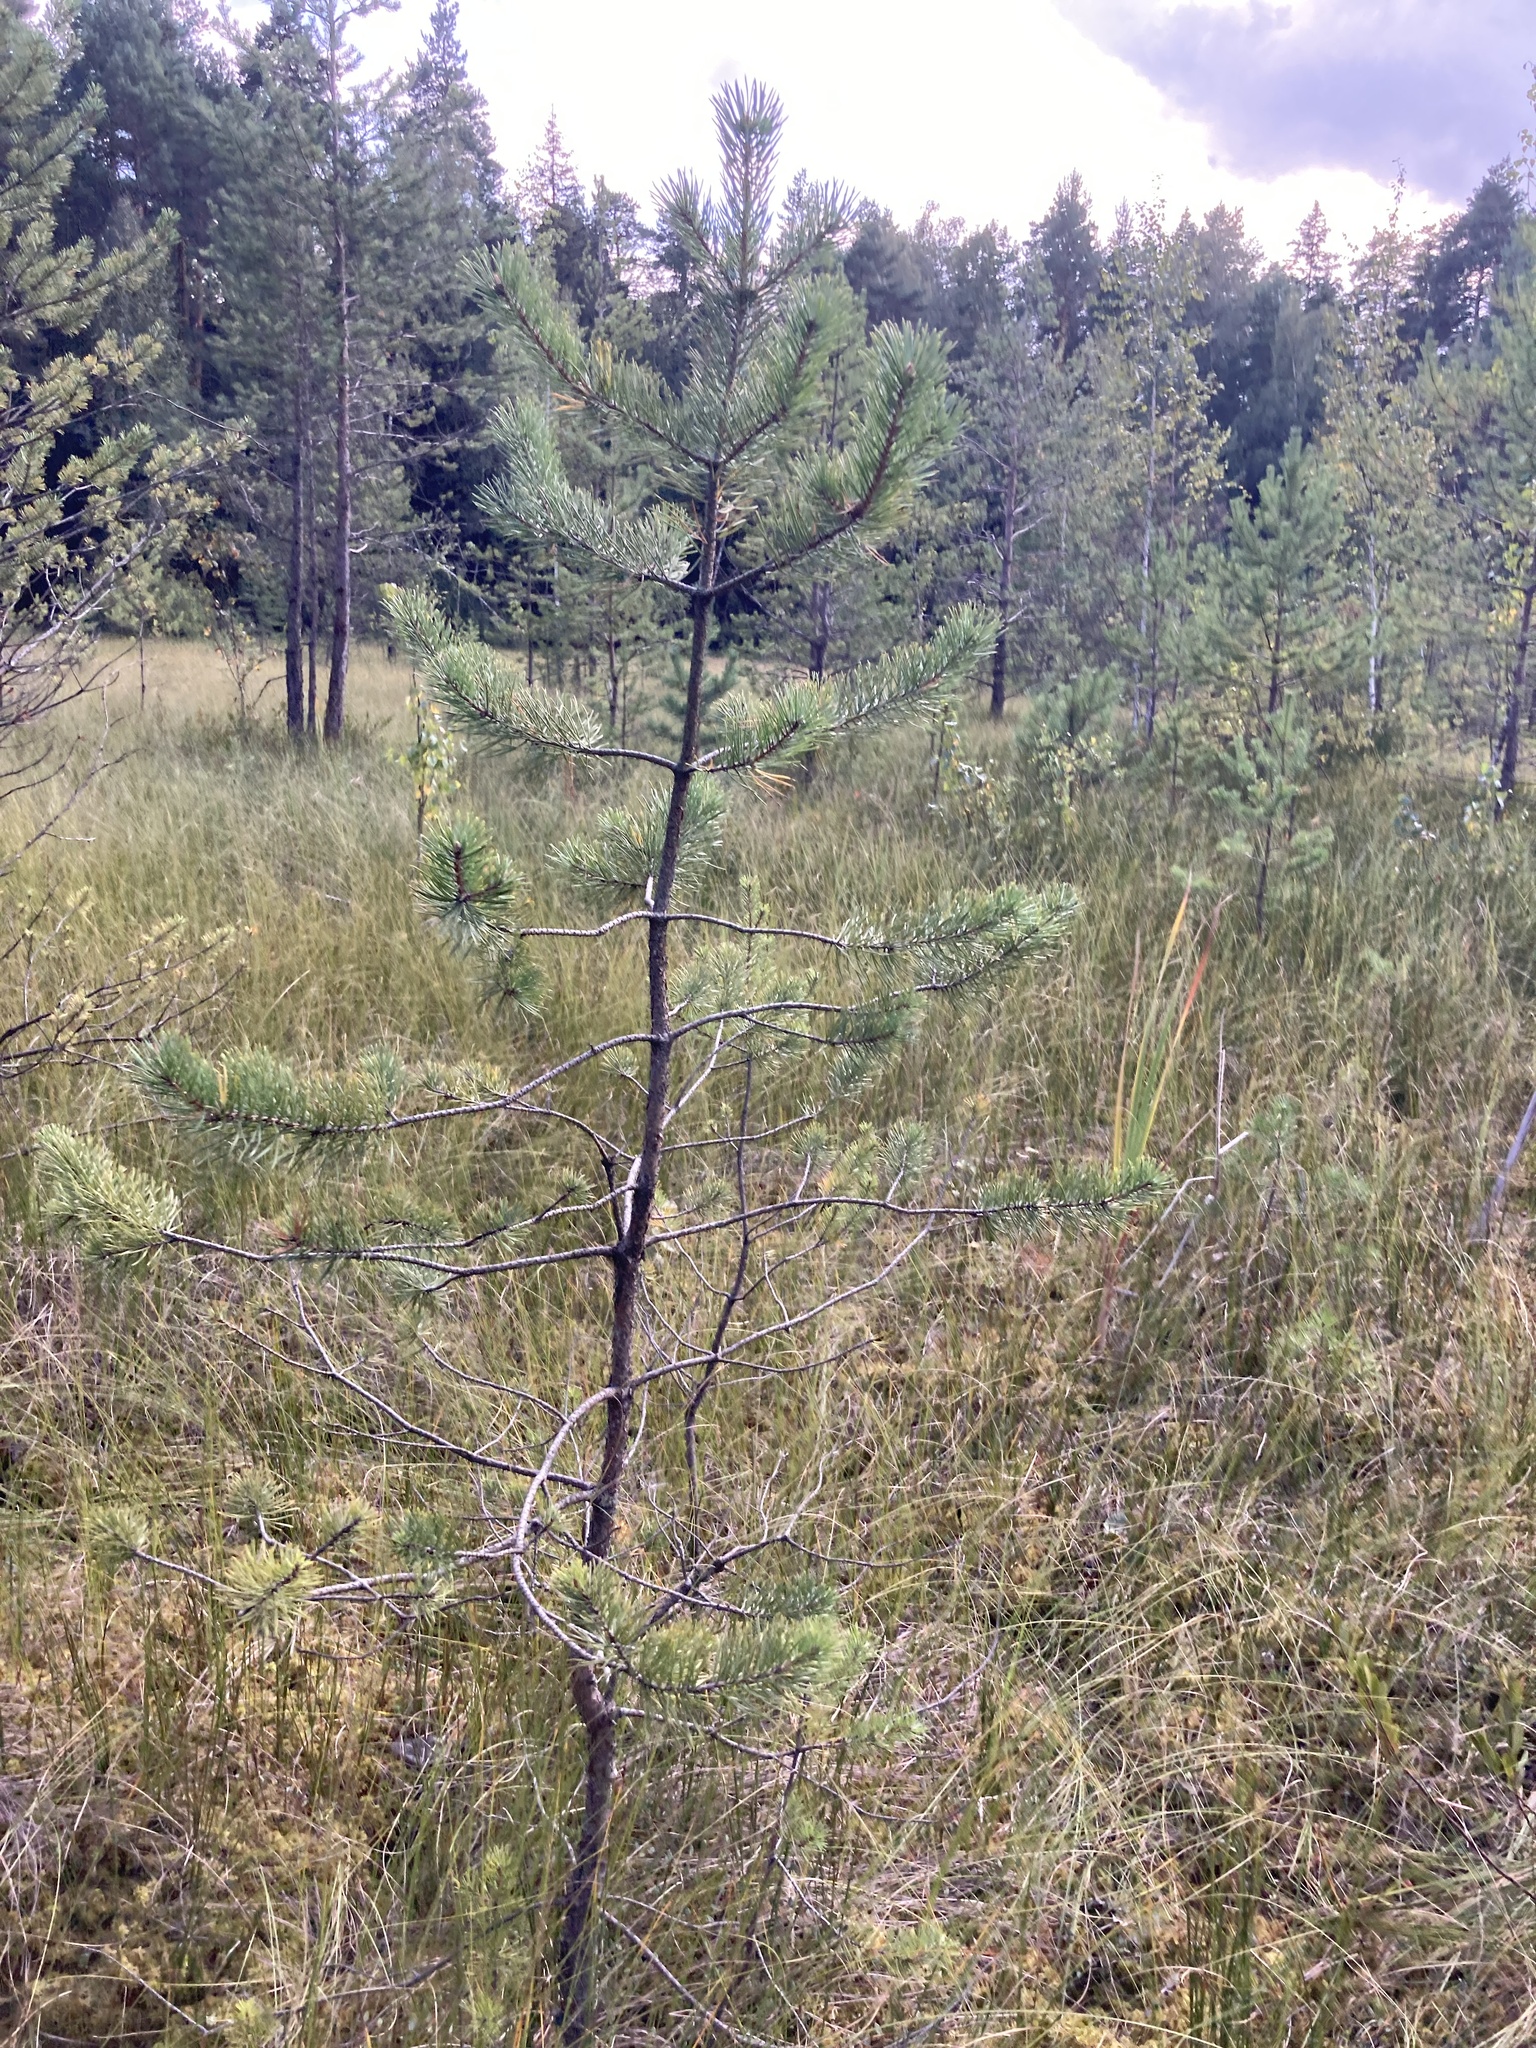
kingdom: Plantae
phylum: Tracheophyta
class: Pinopsida
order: Pinales
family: Pinaceae
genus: Pinus
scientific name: Pinus sylvestris
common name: Scots pine
